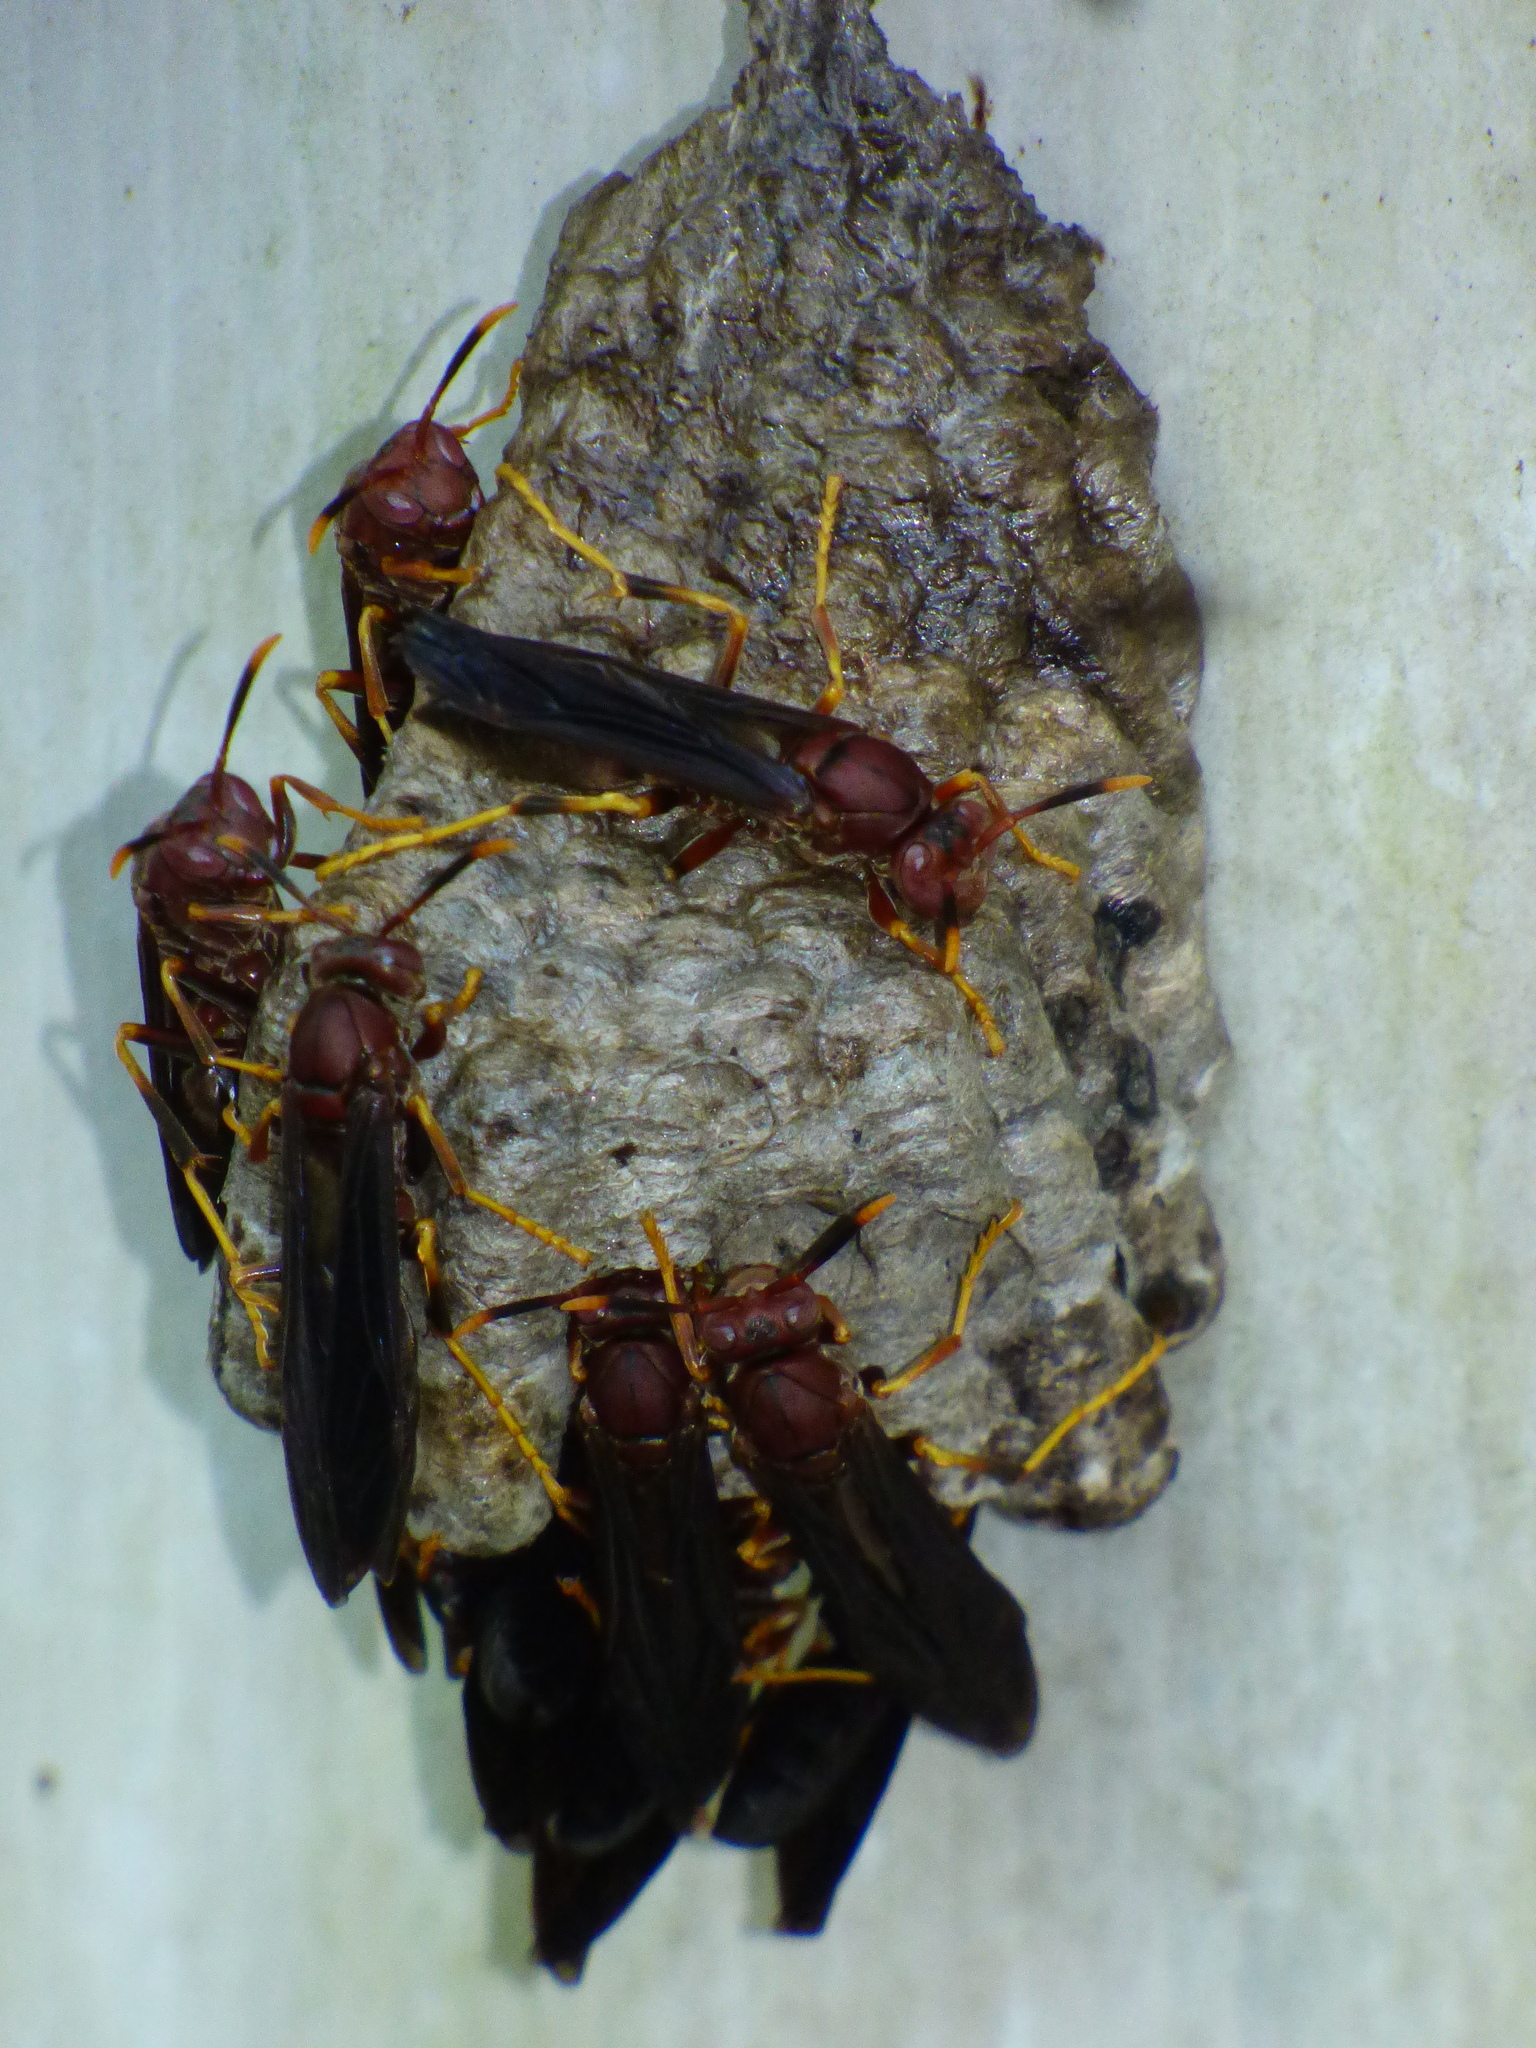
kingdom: Animalia
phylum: Arthropoda
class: Insecta
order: Hymenoptera
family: Eumenidae
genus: Polistes
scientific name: Polistes annularis
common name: Ringed paper wasp
